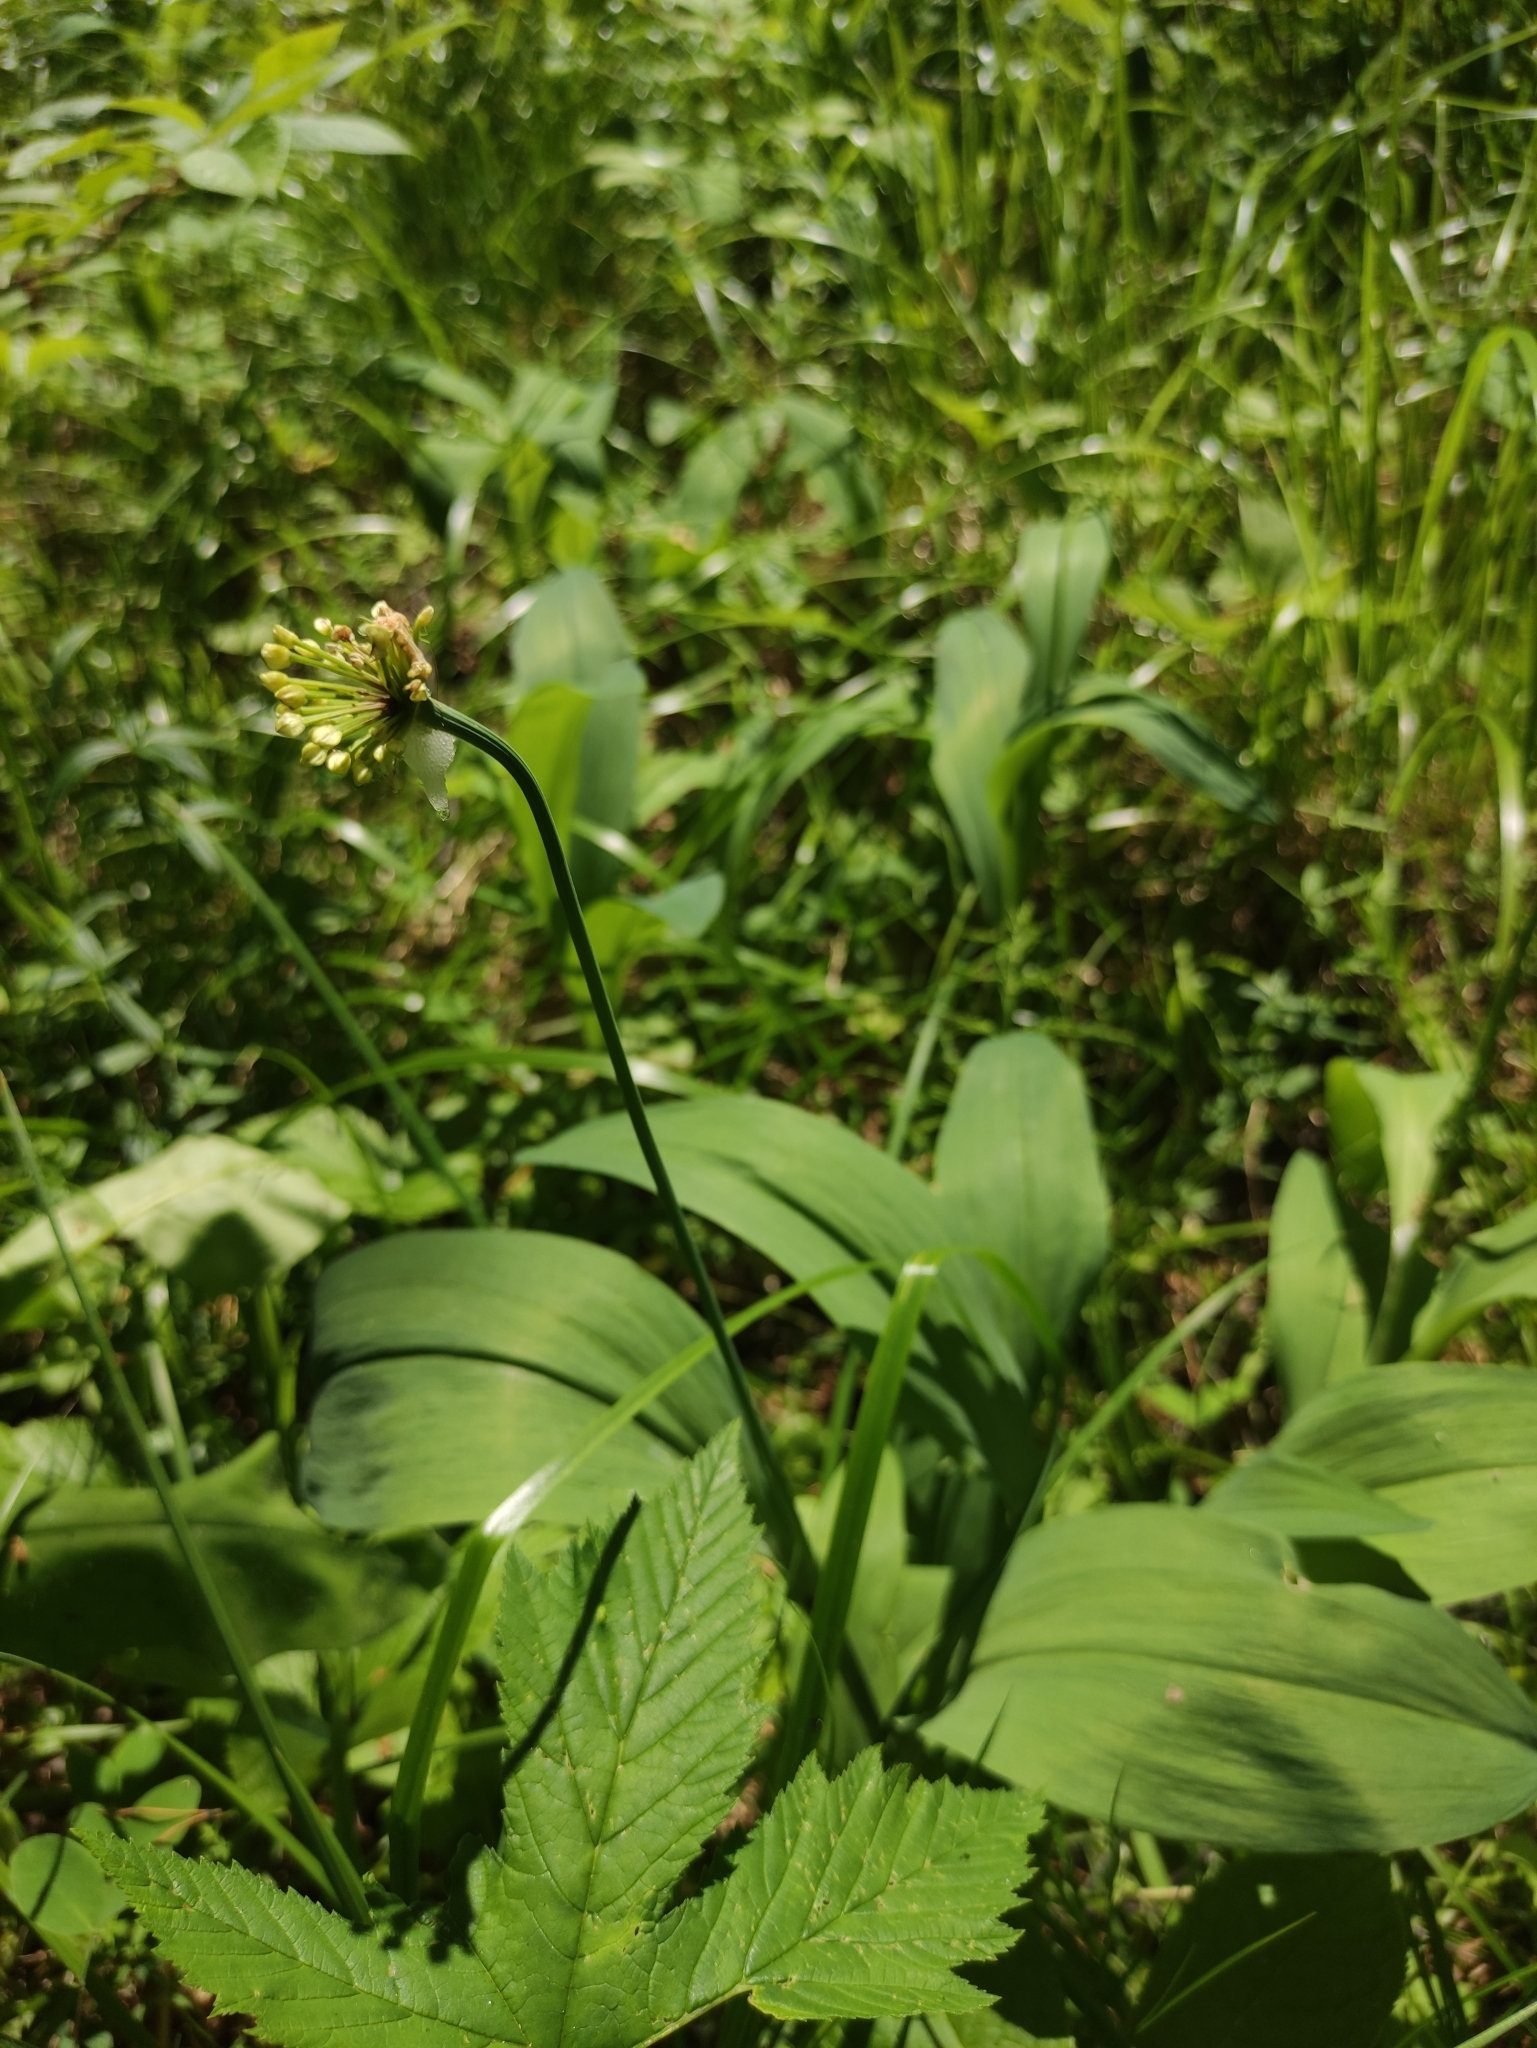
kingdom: Plantae
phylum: Tracheophyta
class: Liliopsida
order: Asparagales
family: Amaryllidaceae
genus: Allium
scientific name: Allium microdictyon
